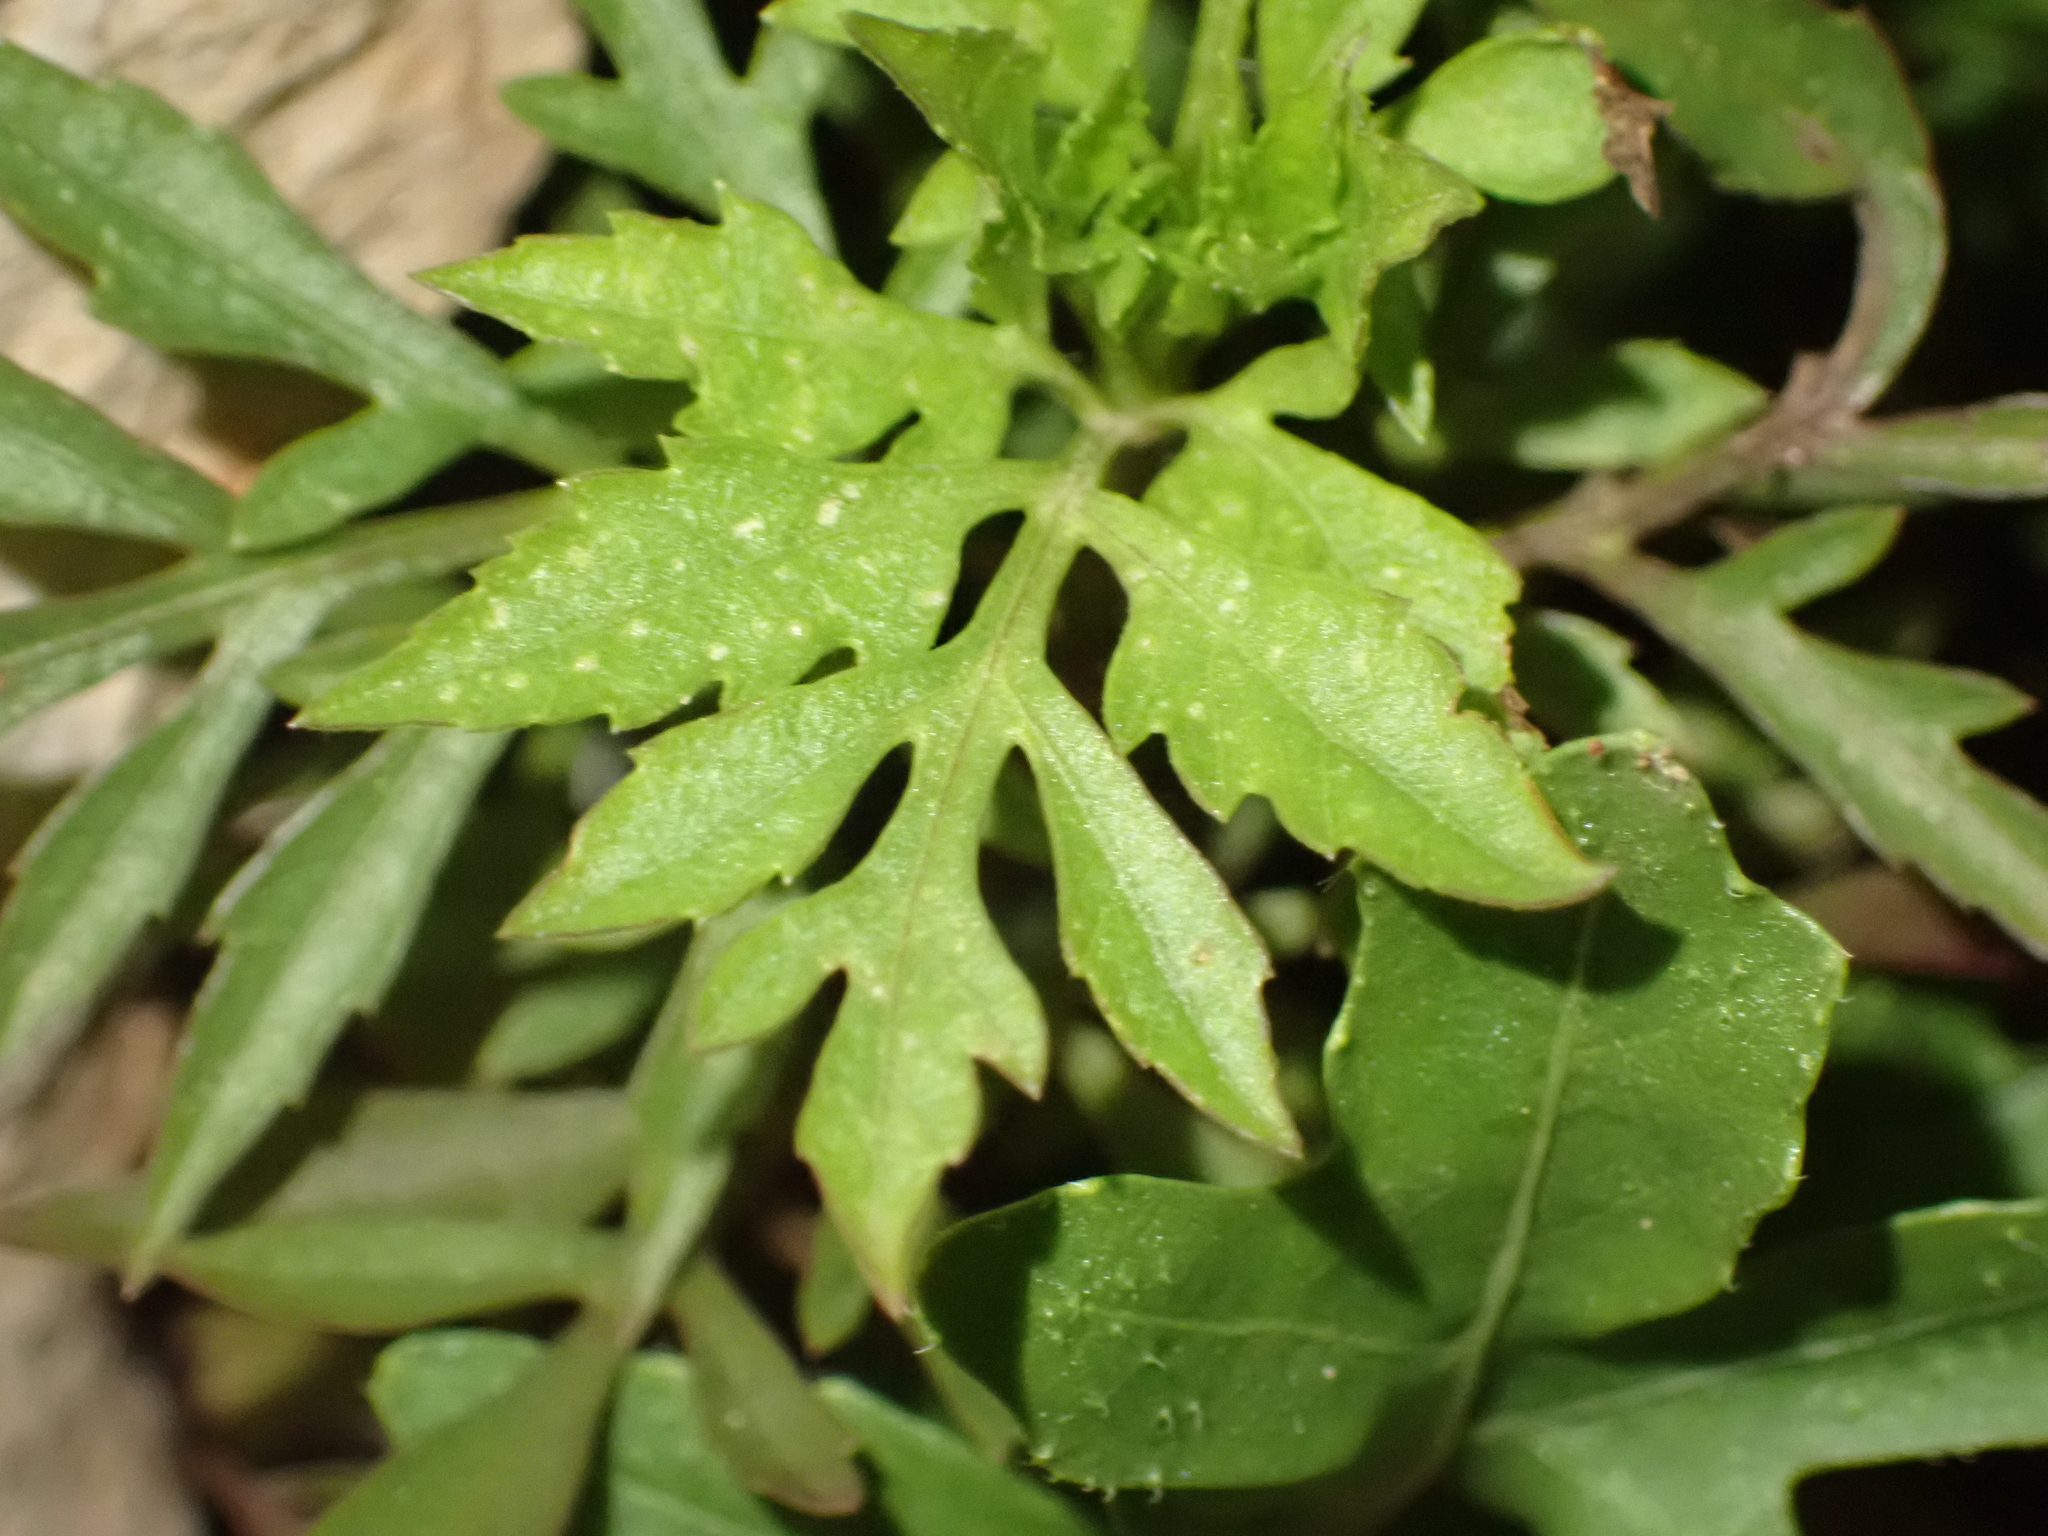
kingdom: Plantae
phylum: Tracheophyta
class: Magnoliopsida
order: Asterales
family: Asteraceae
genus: Bidens
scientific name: Bidens subalternans
